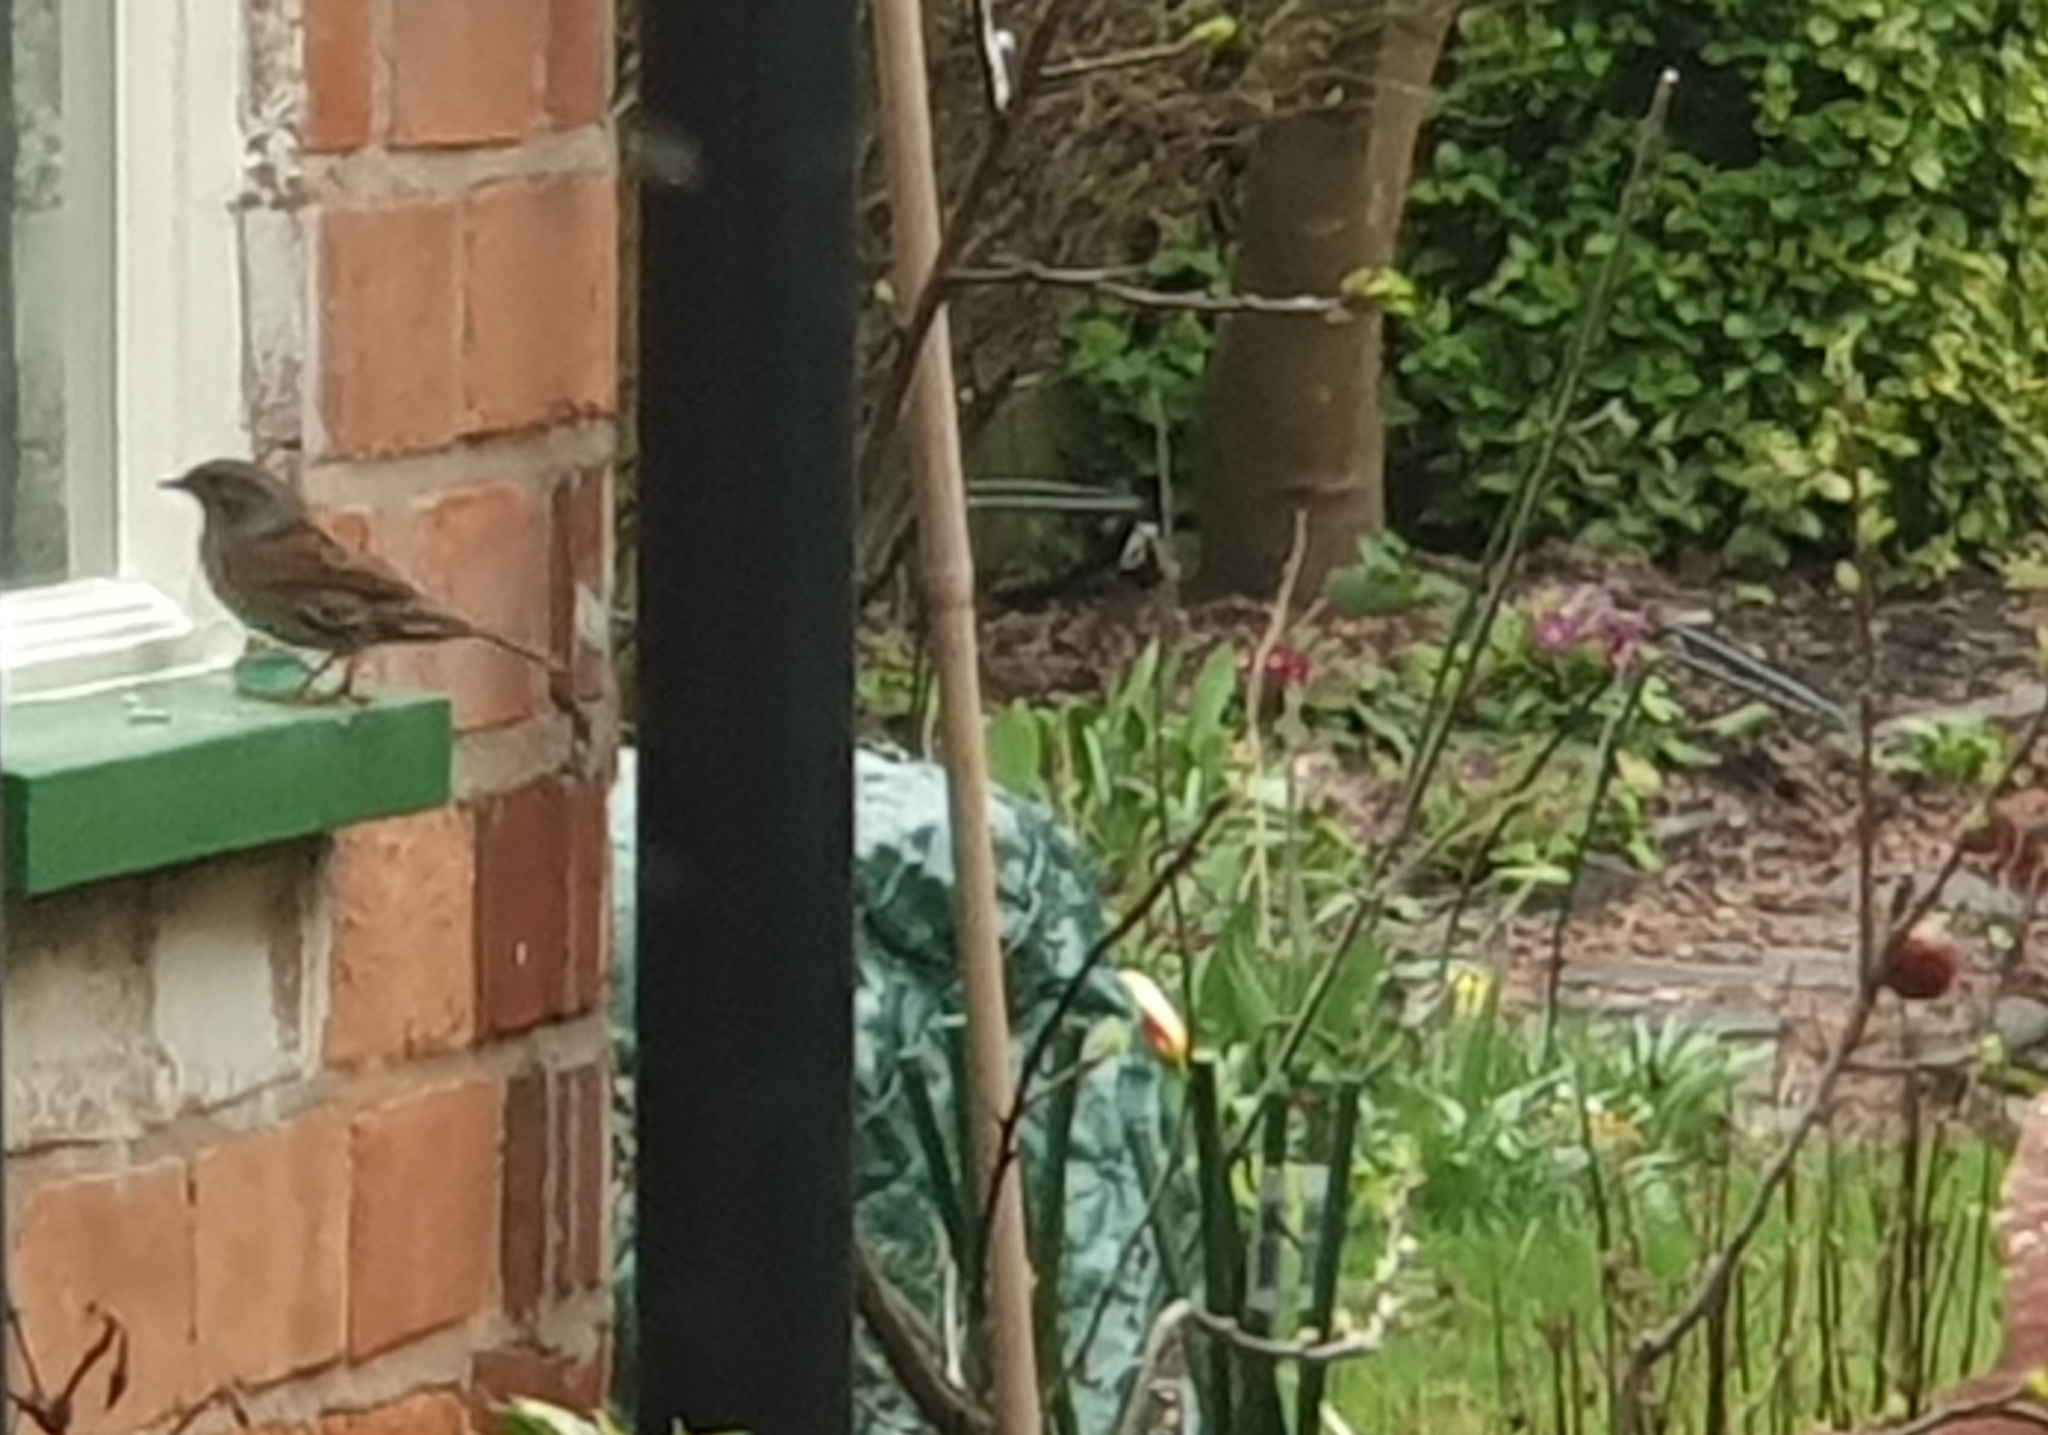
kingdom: Animalia
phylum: Chordata
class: Aves
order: Passeriformes
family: Prunellidae
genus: Prunella
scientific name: Prunella modularis
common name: Dunnock
